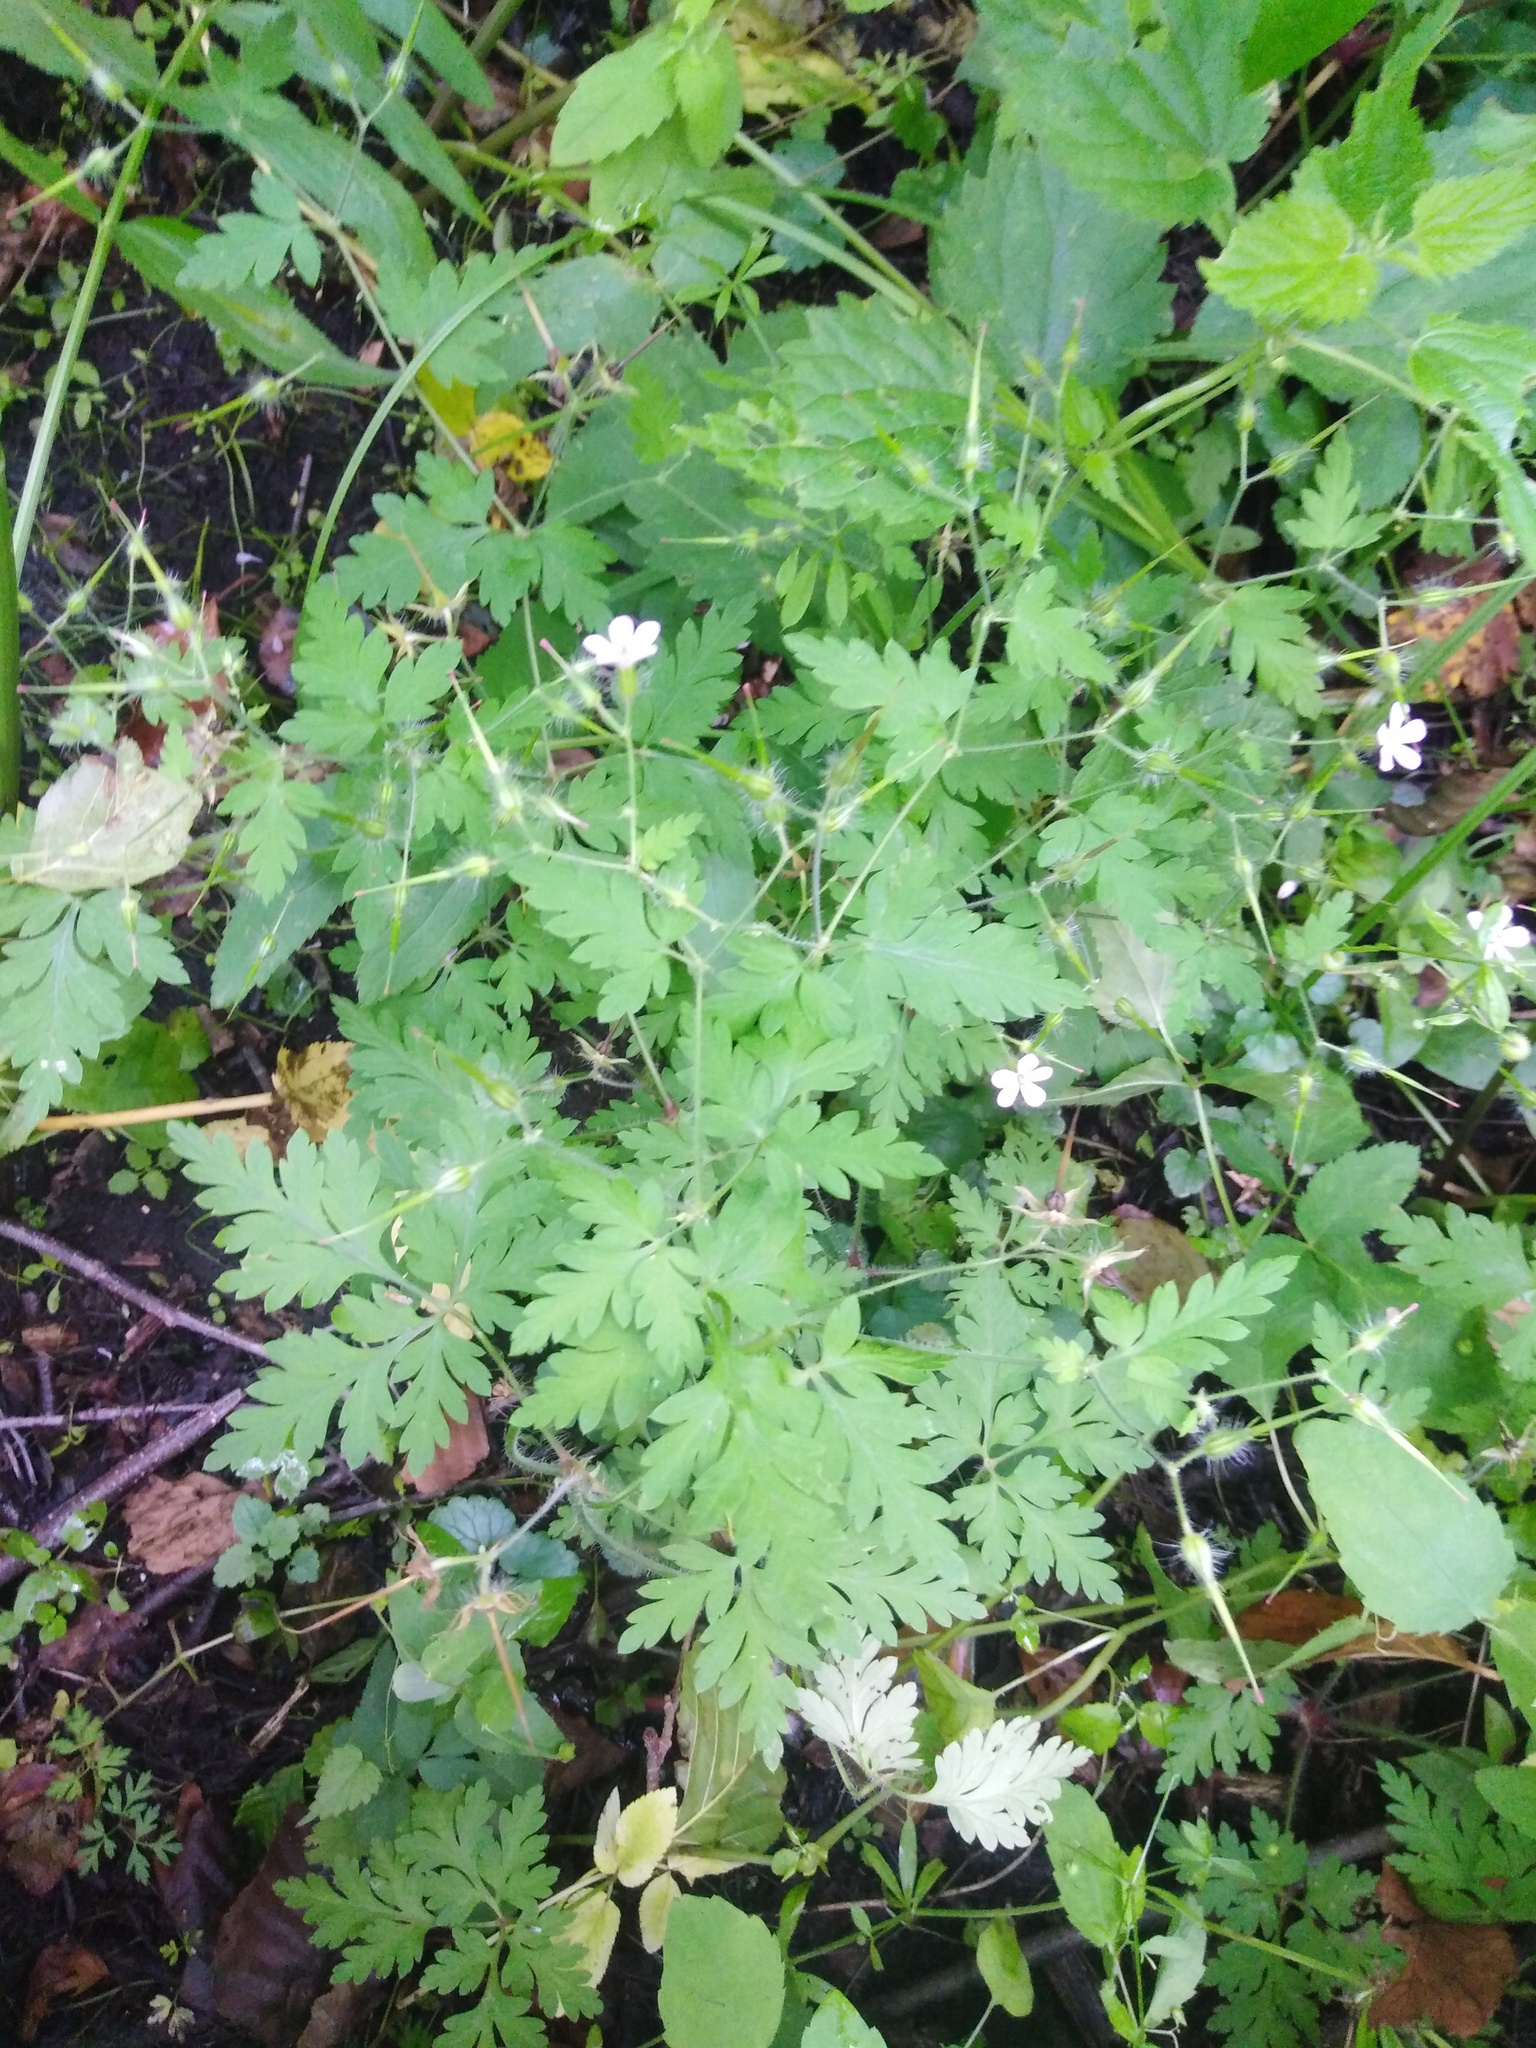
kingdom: Plantae
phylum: Tracheophyta
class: Magnoliopsida
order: Geraniales
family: Geraniaceae
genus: Geranium
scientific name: Geranium robertianum
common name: Herb-robert
